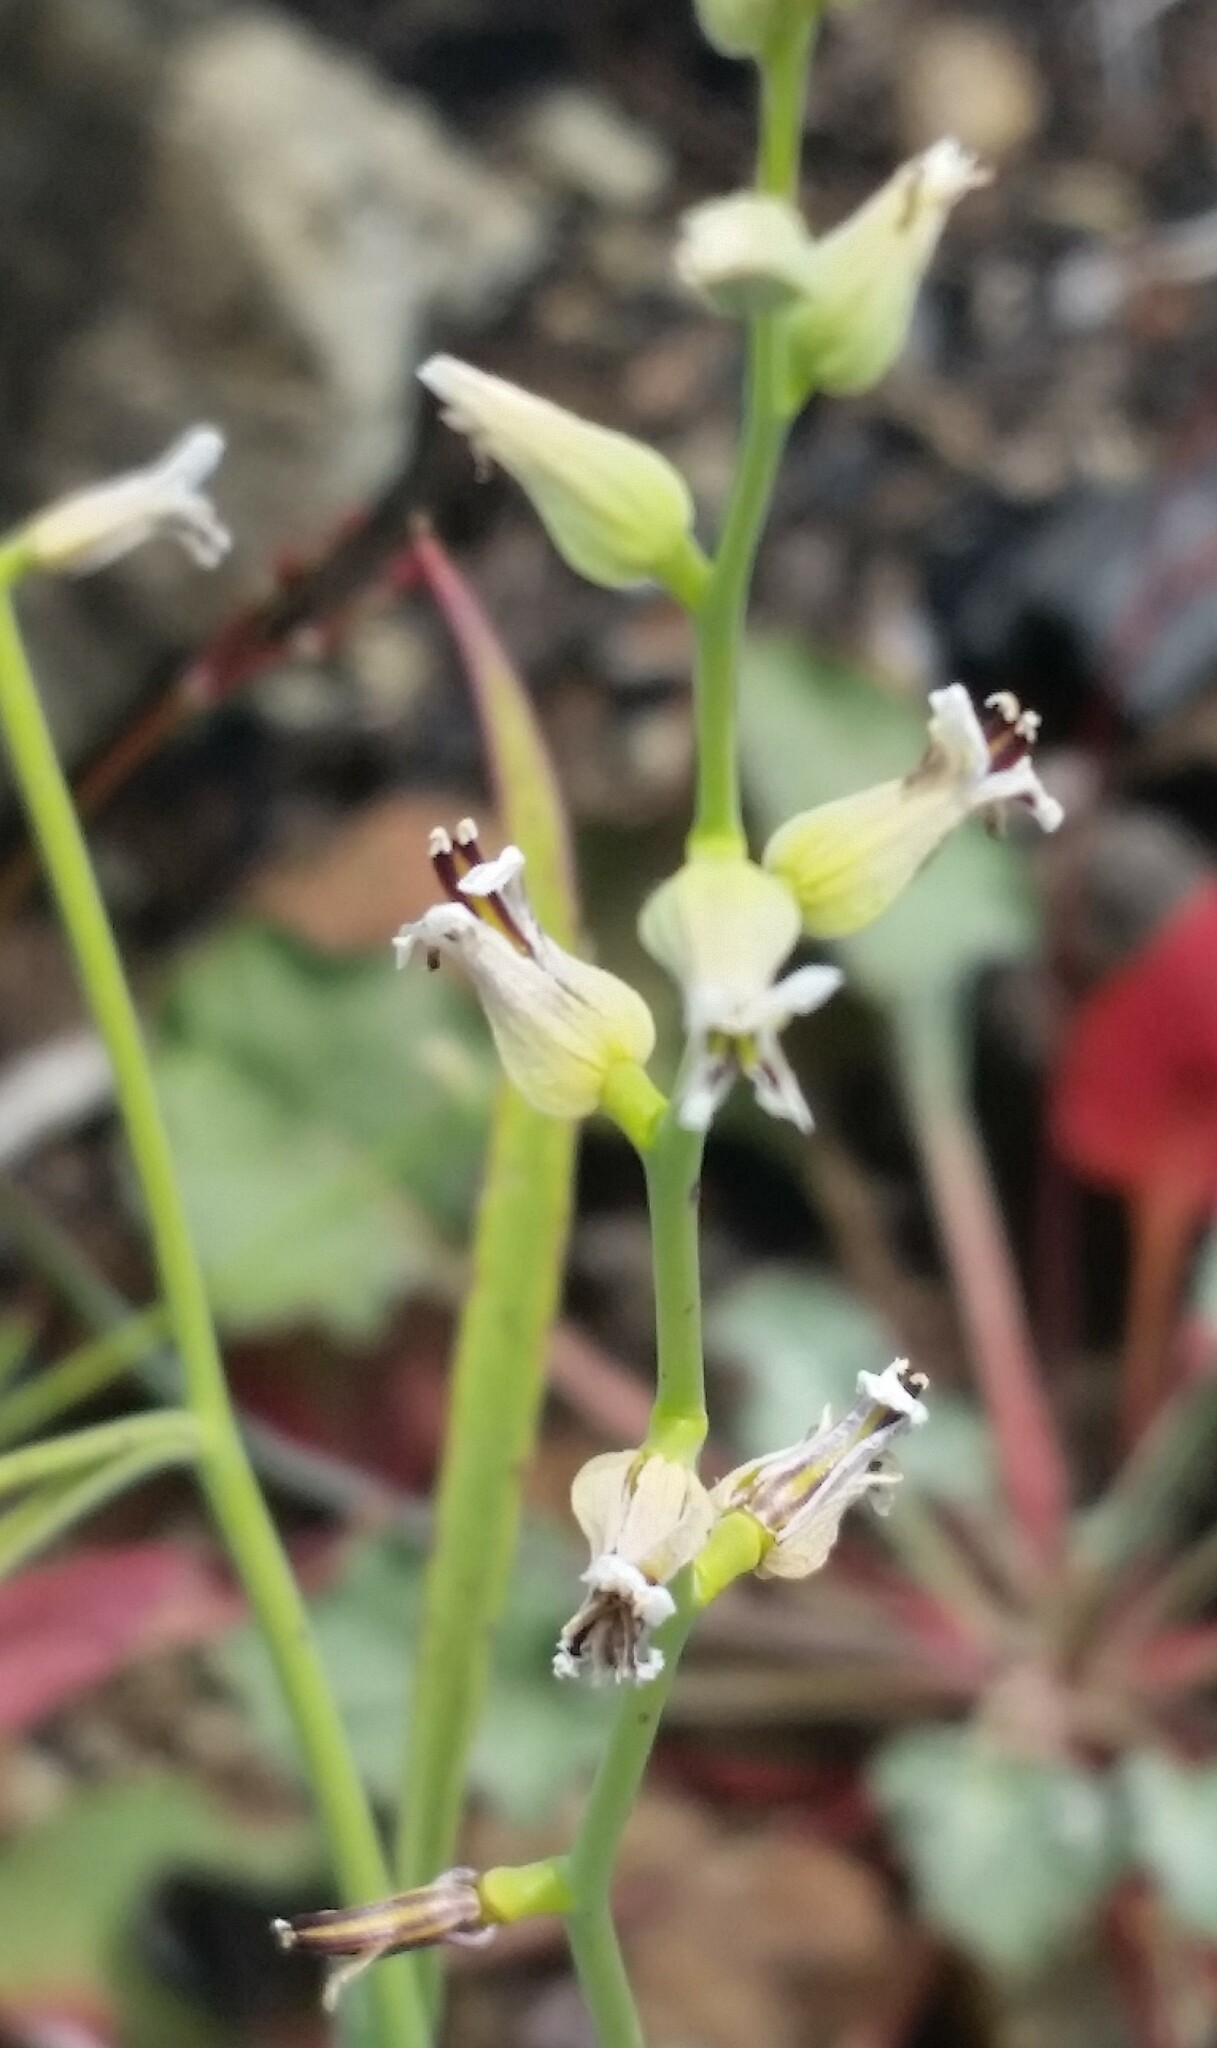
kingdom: Plantae
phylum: Tracheophyta
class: Magnoliopsida
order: Brassicales
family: Brassicaceae
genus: Streptanthus
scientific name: Streptanthus barbiger
